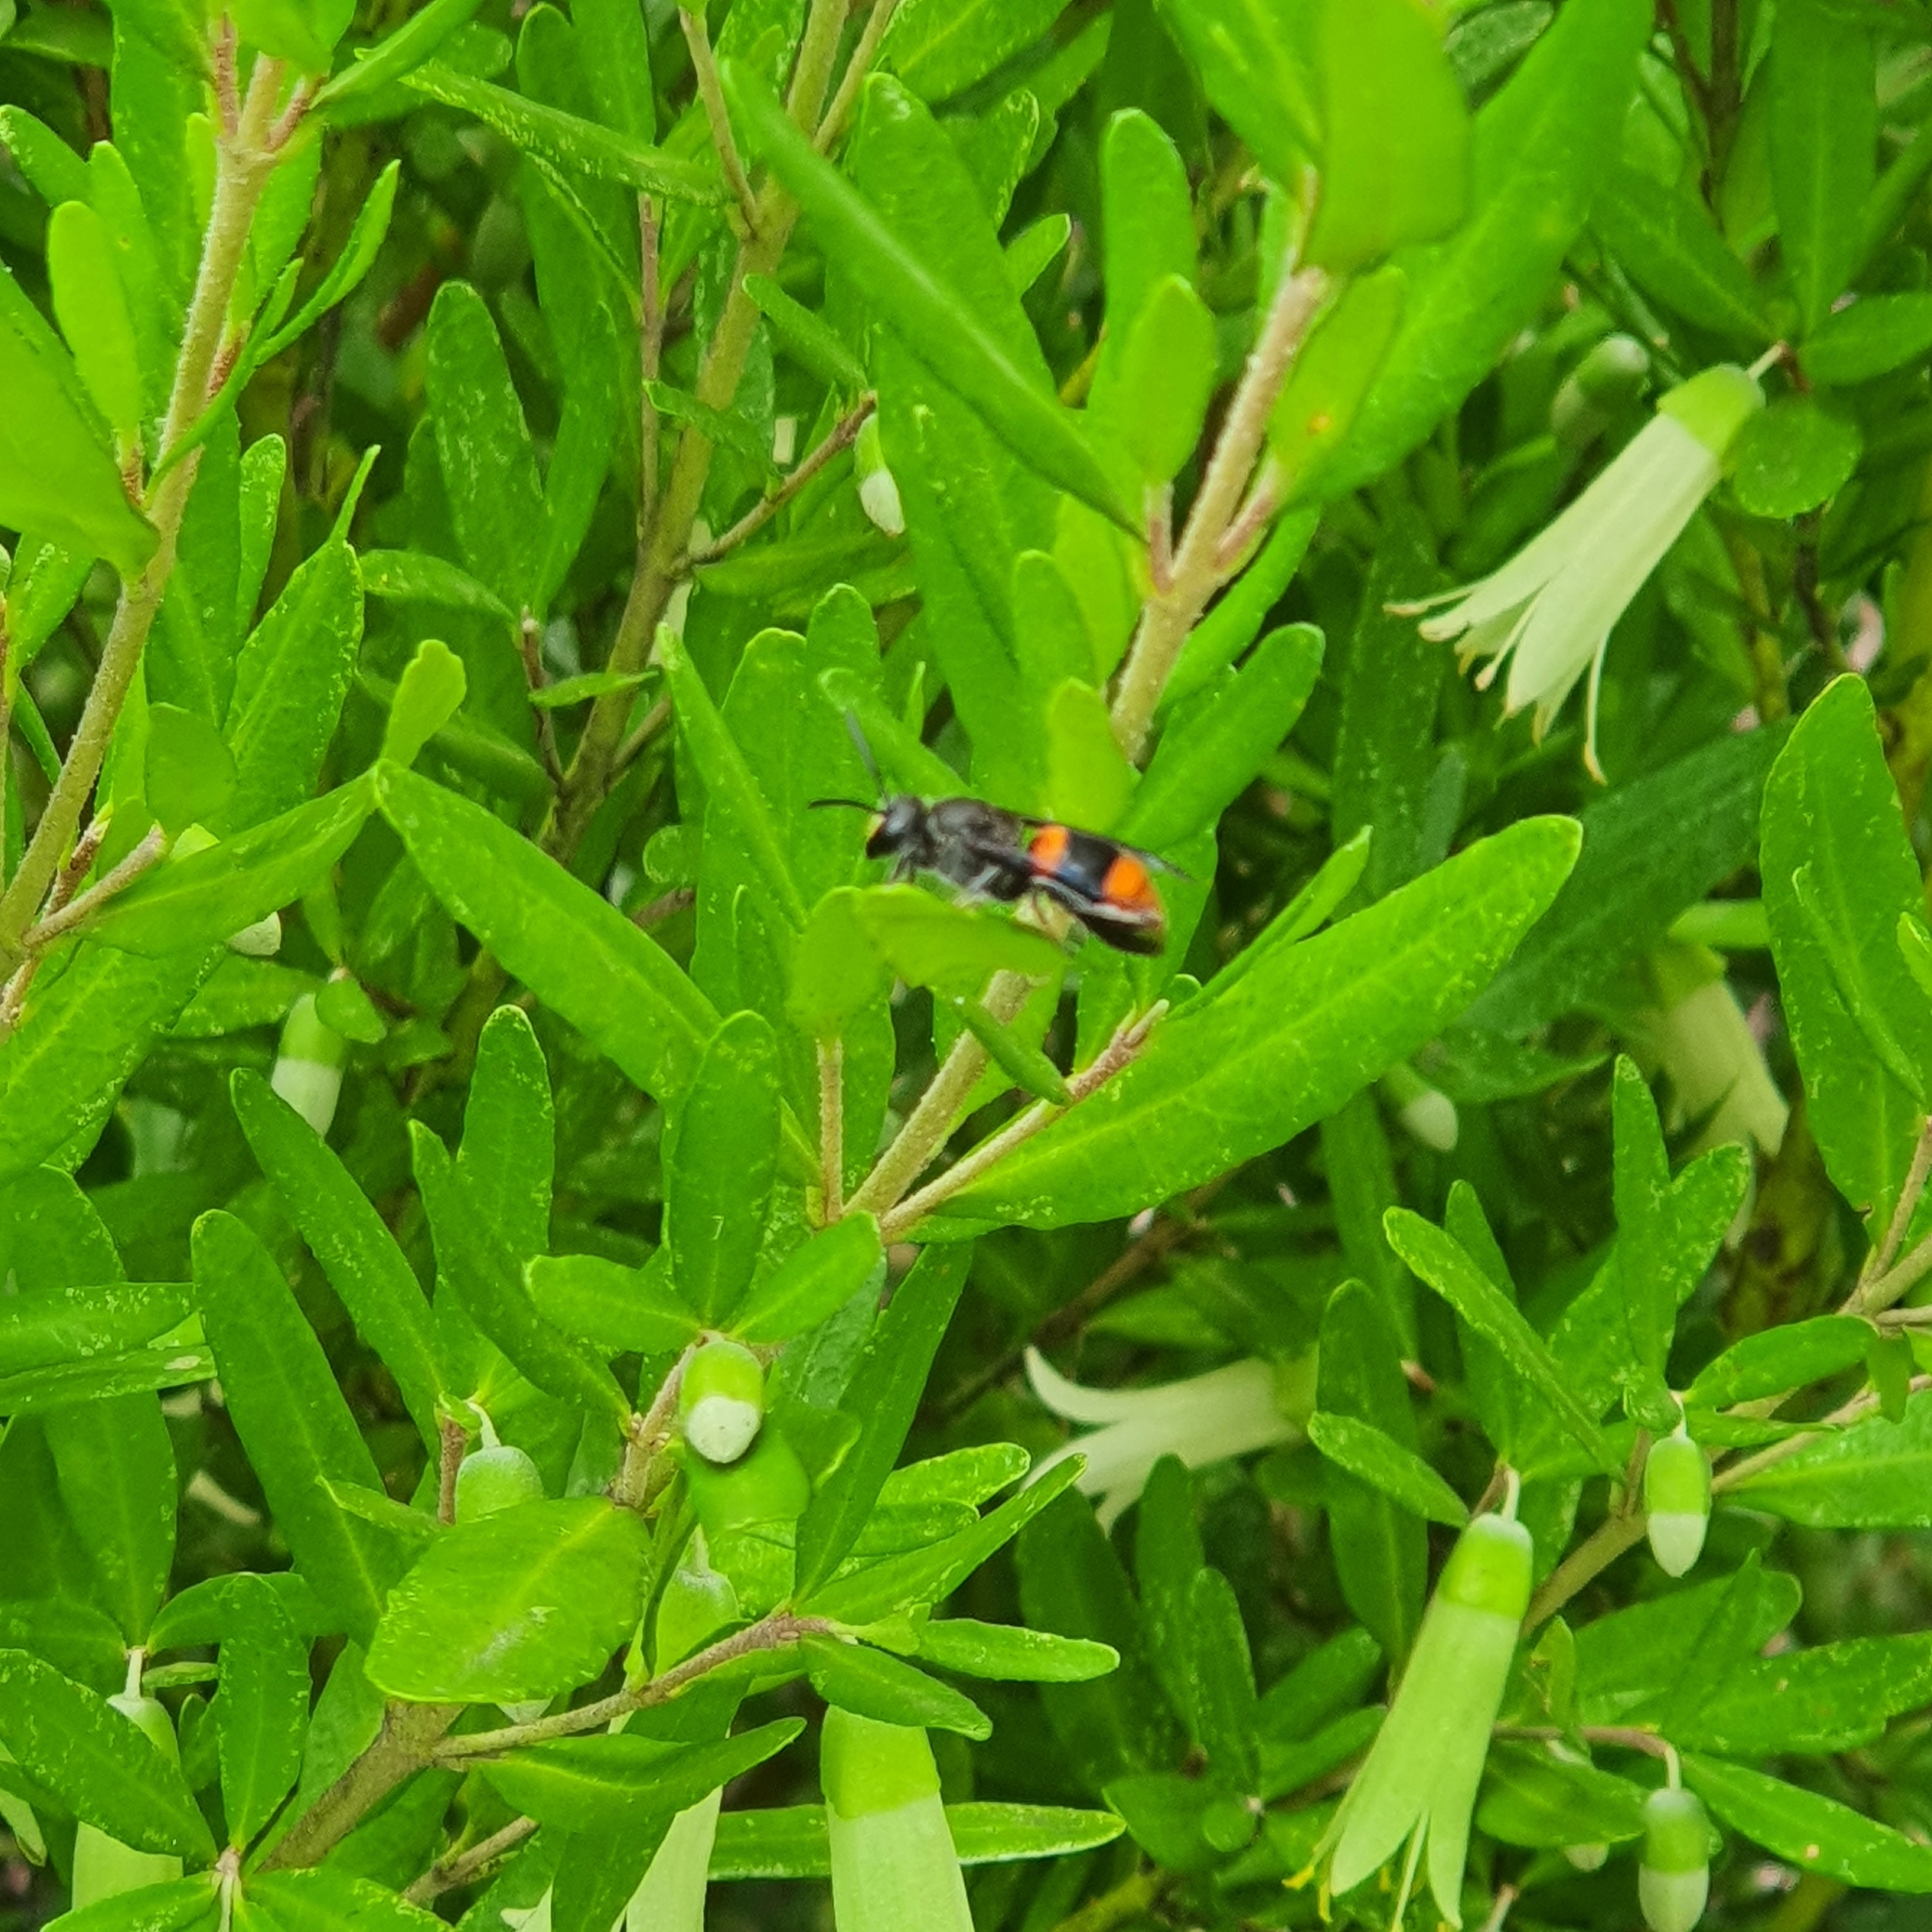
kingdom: Animalia
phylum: Arthropoda
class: Insecta
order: Hymenoptera
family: Colletidae
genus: Hyleoides
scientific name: Hyleoides concinna
